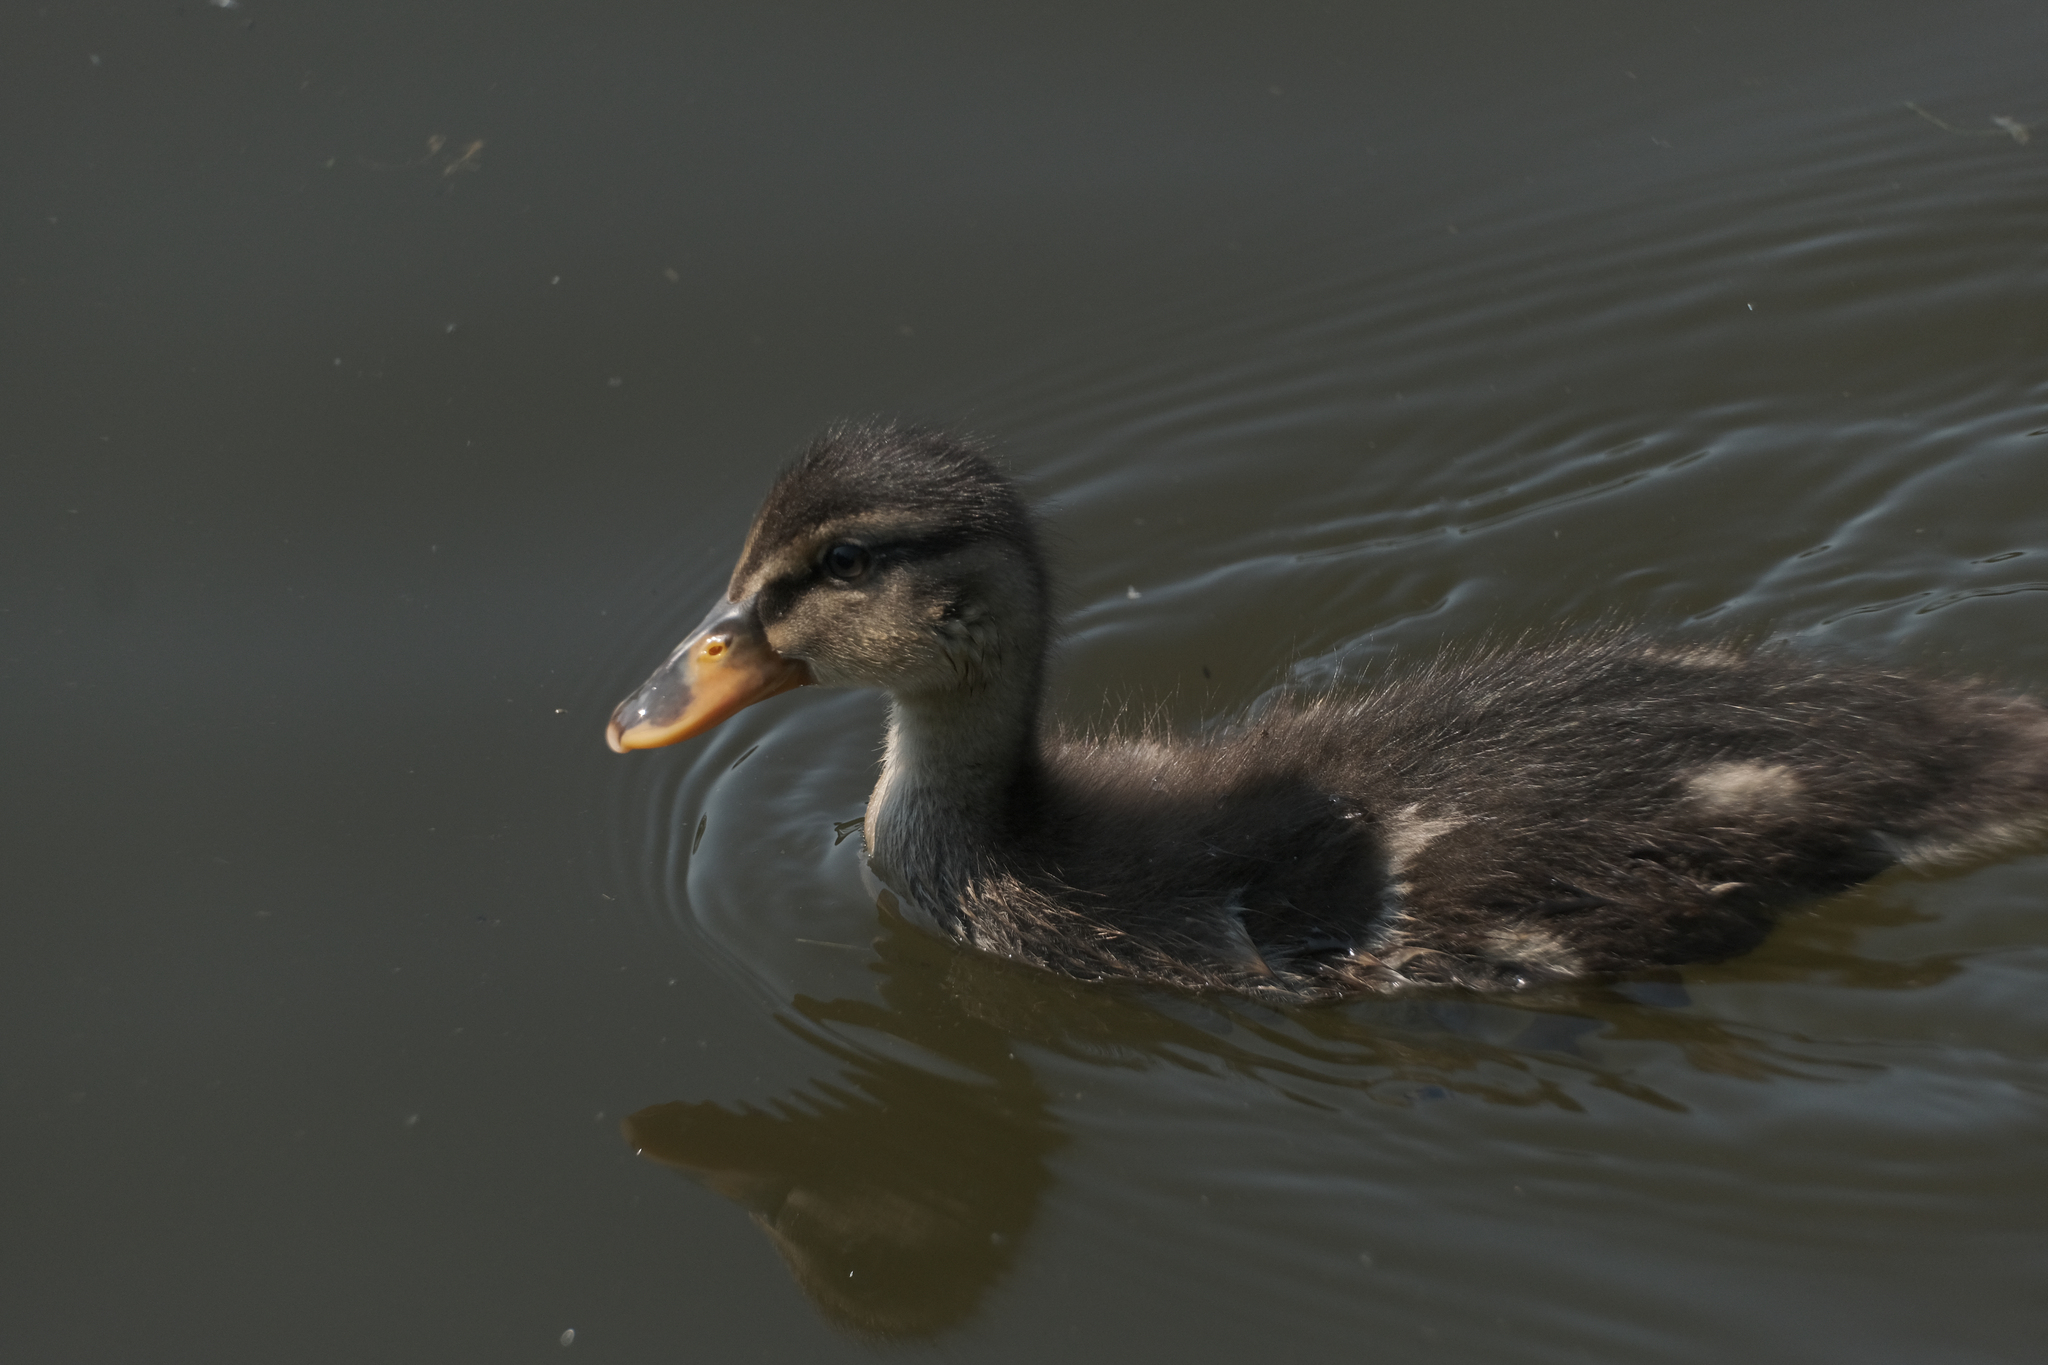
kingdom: Animalia
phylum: Chordata
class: Aves
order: Anseriformes
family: Anatidae
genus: Anas
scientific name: Anas platyrhynchos
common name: Mallard
